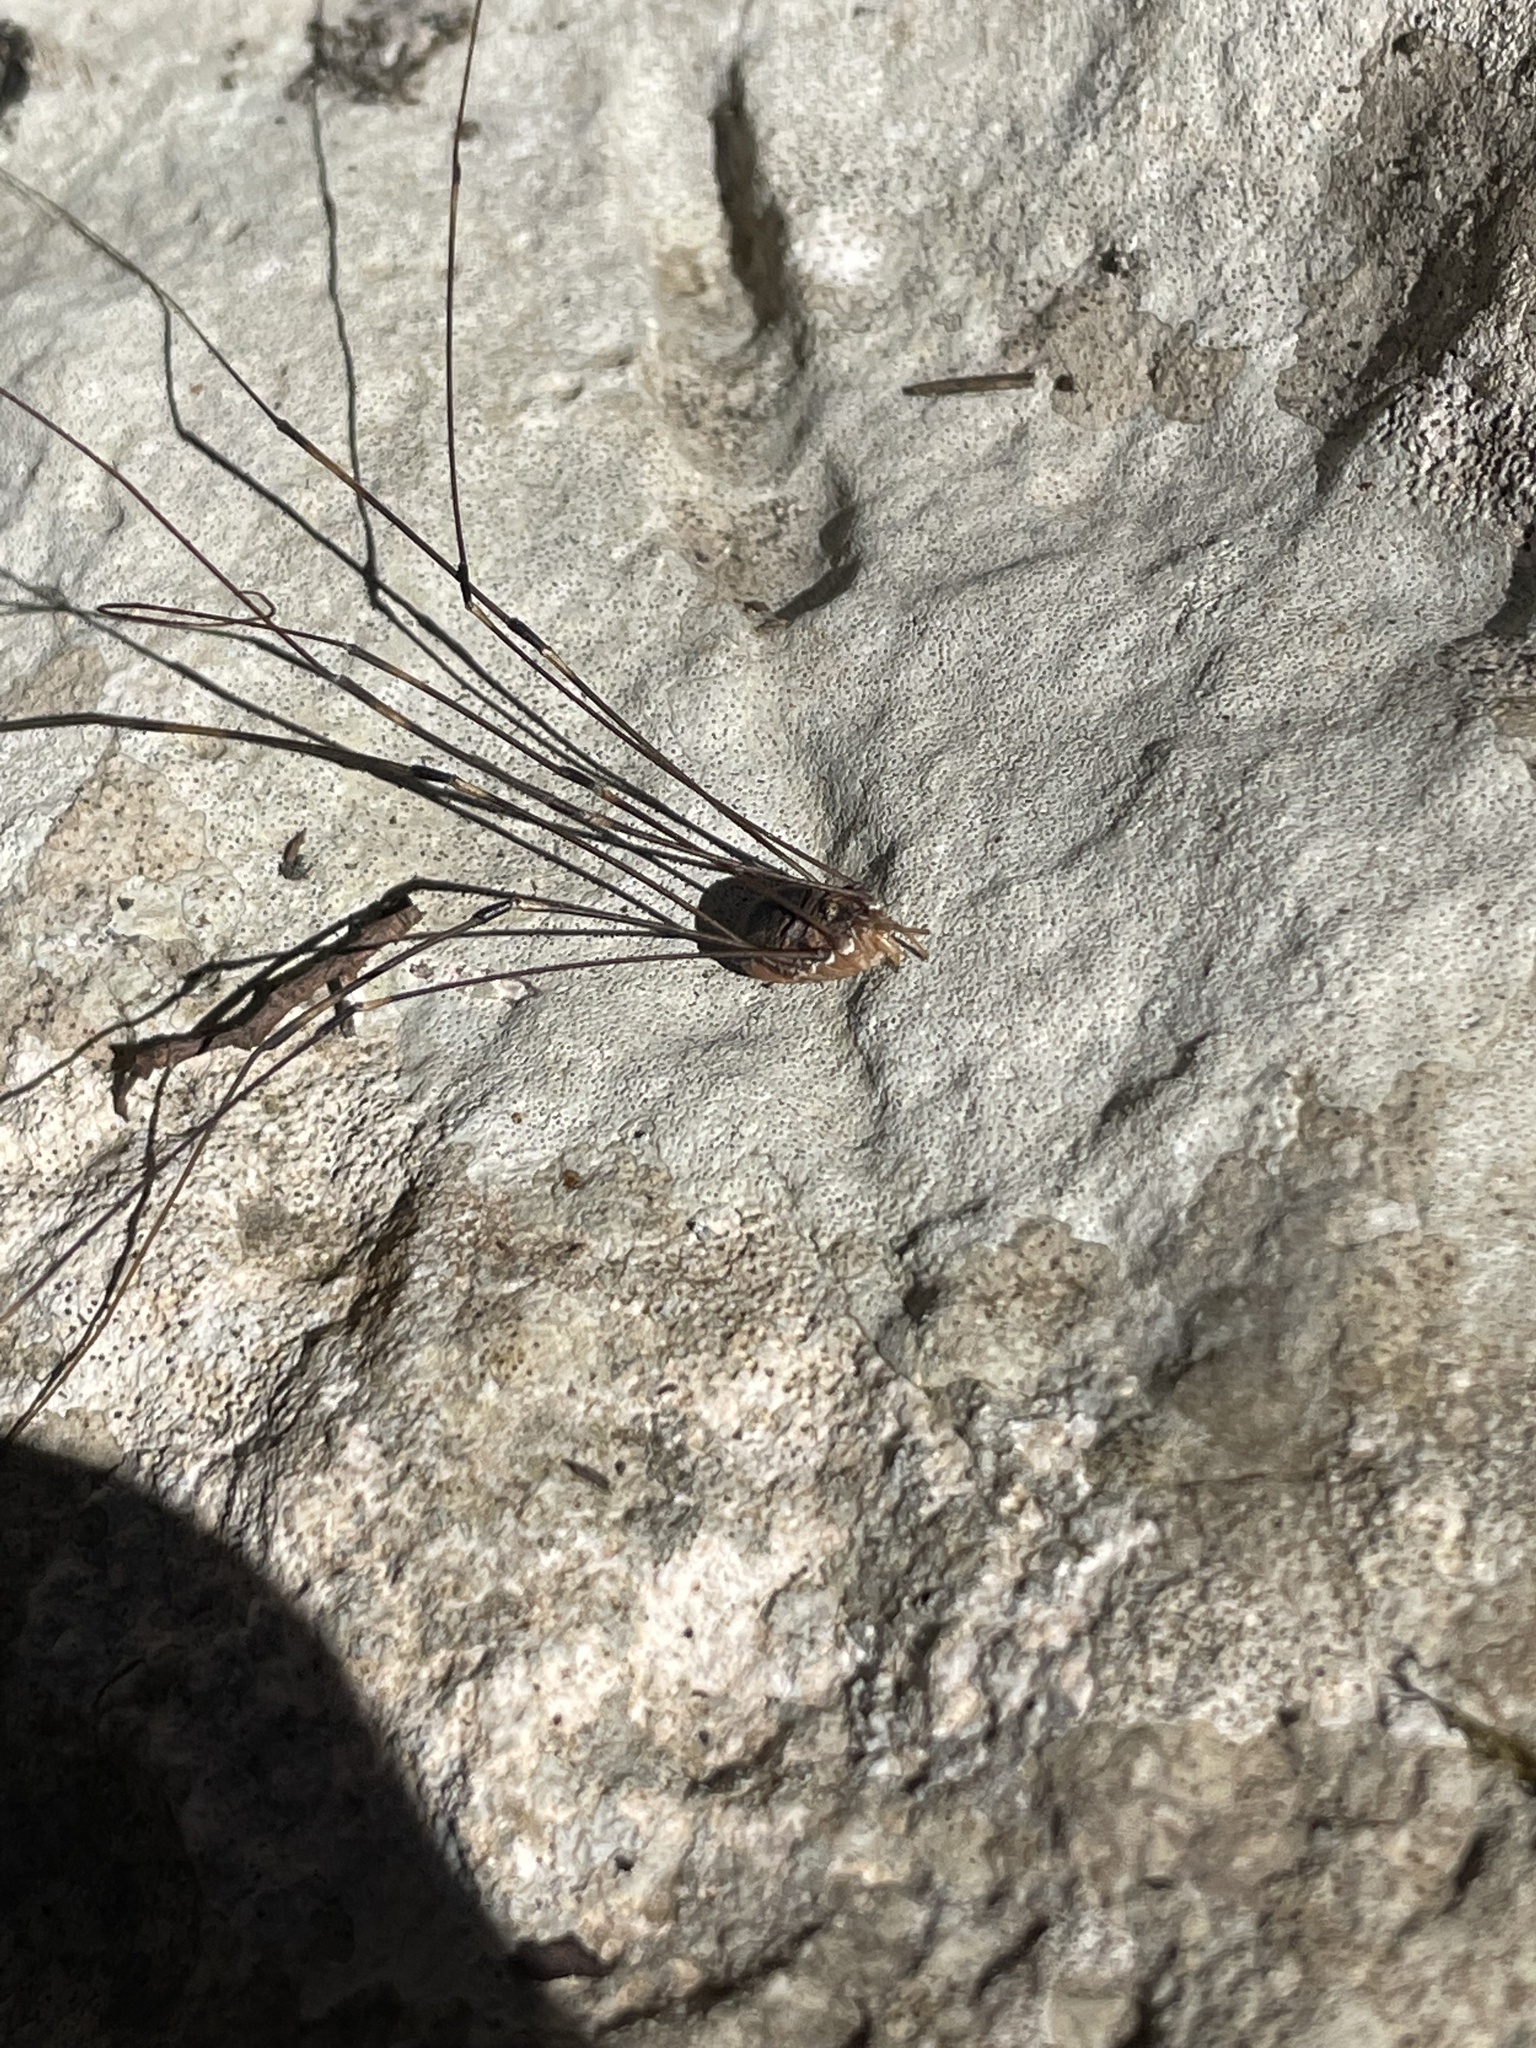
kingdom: Animalia
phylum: Arthropoda
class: Arachnida
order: Opiliones
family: Sclerosomatidae
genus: Leiobunum
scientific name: Leiobunum townsendi
